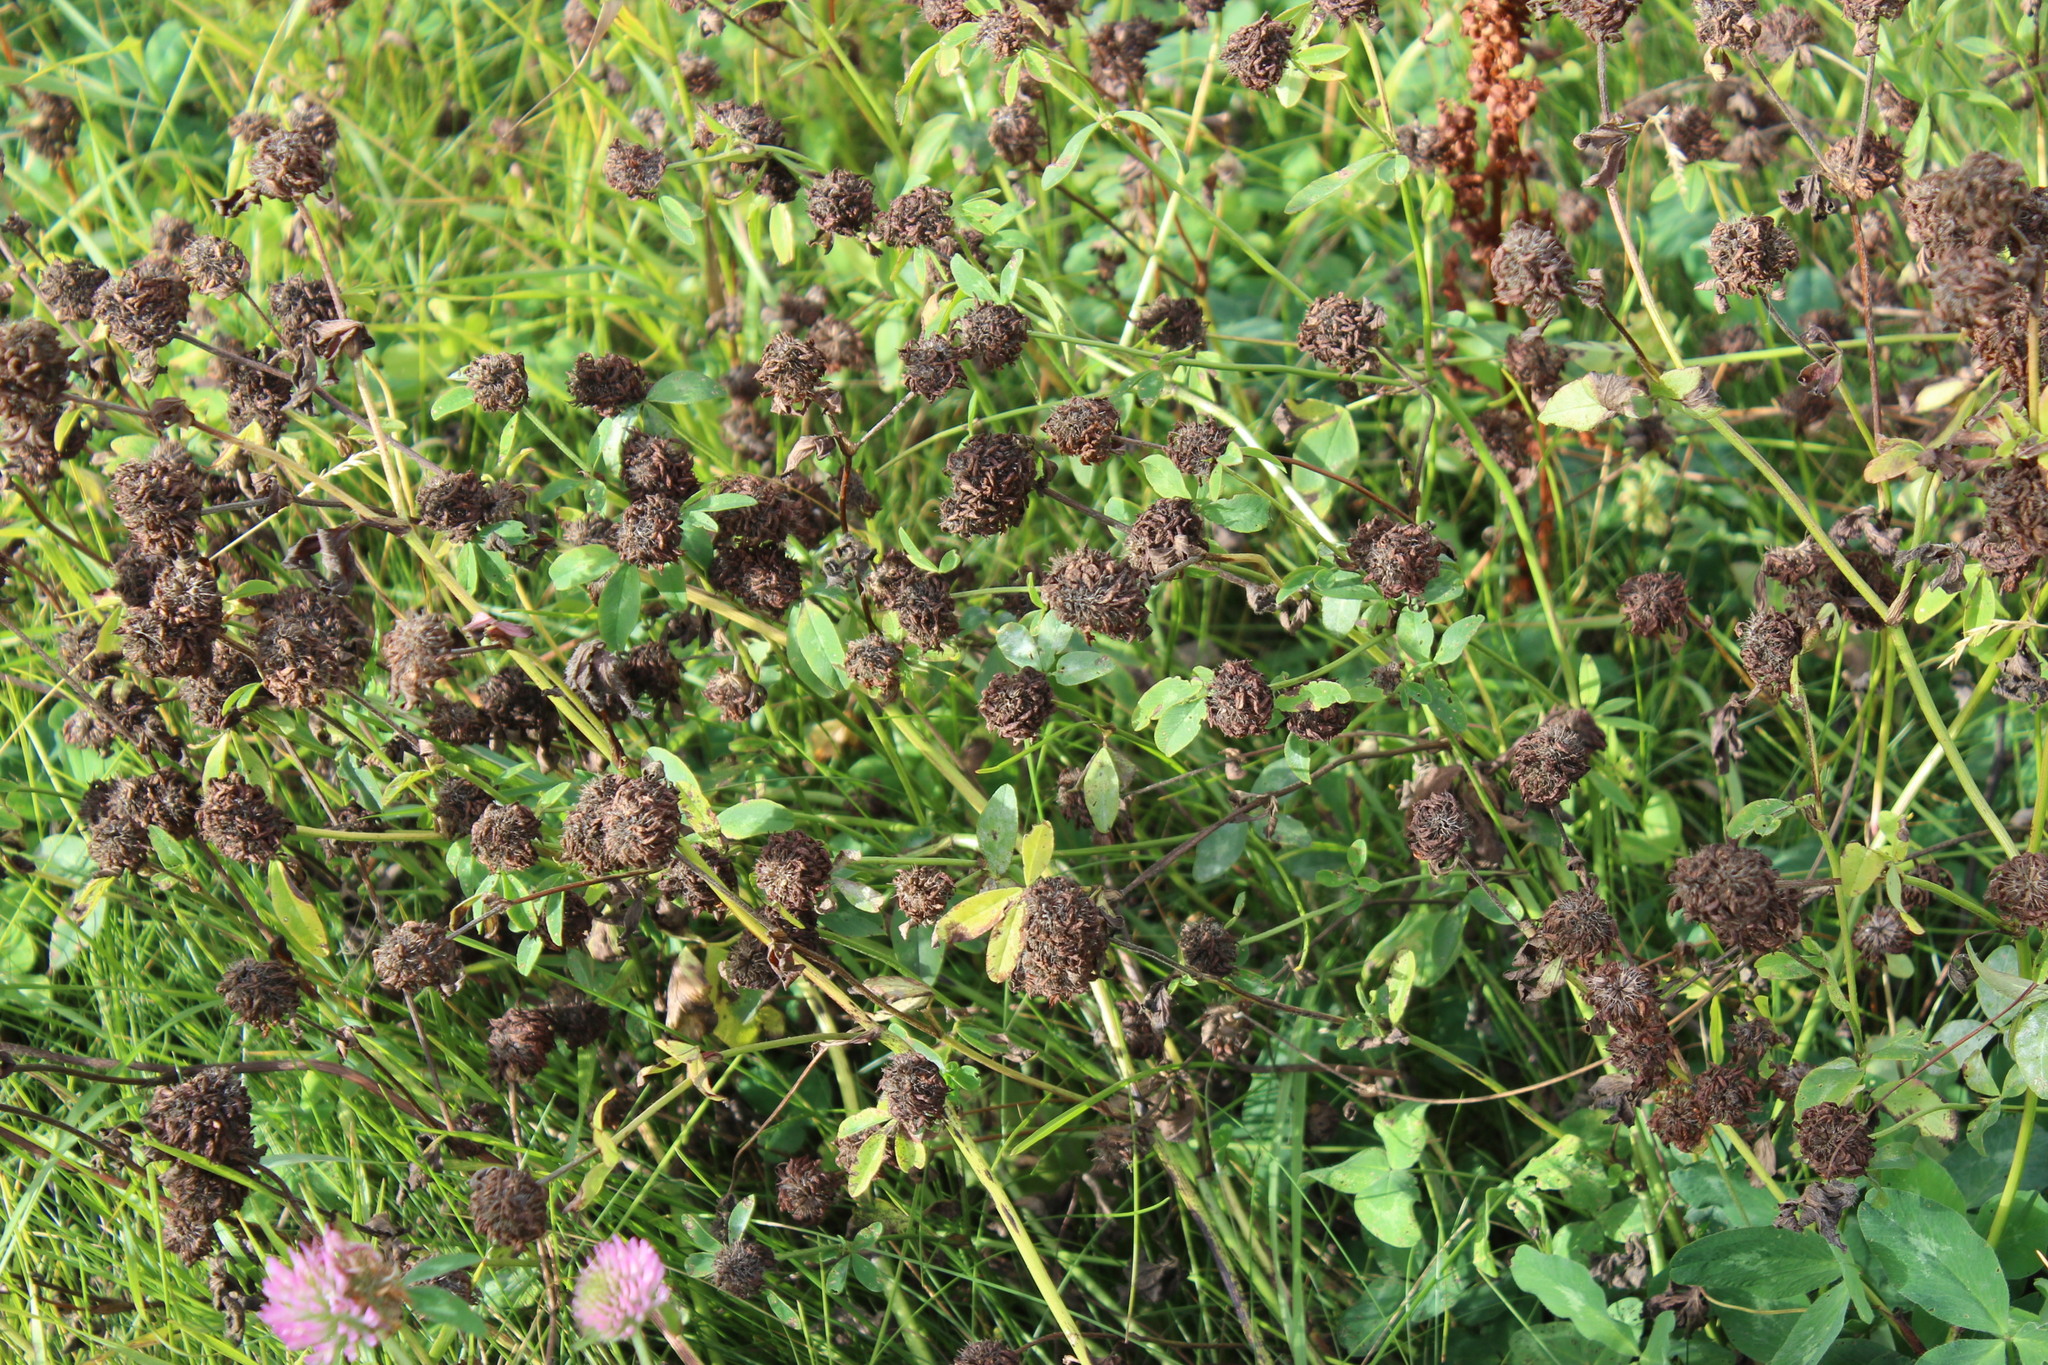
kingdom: Plantae
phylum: Tracheophyta
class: Magnoliopsida
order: Fabales
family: Fabaceae
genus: Trifolium
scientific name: Trifolium pratense
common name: Red clover
